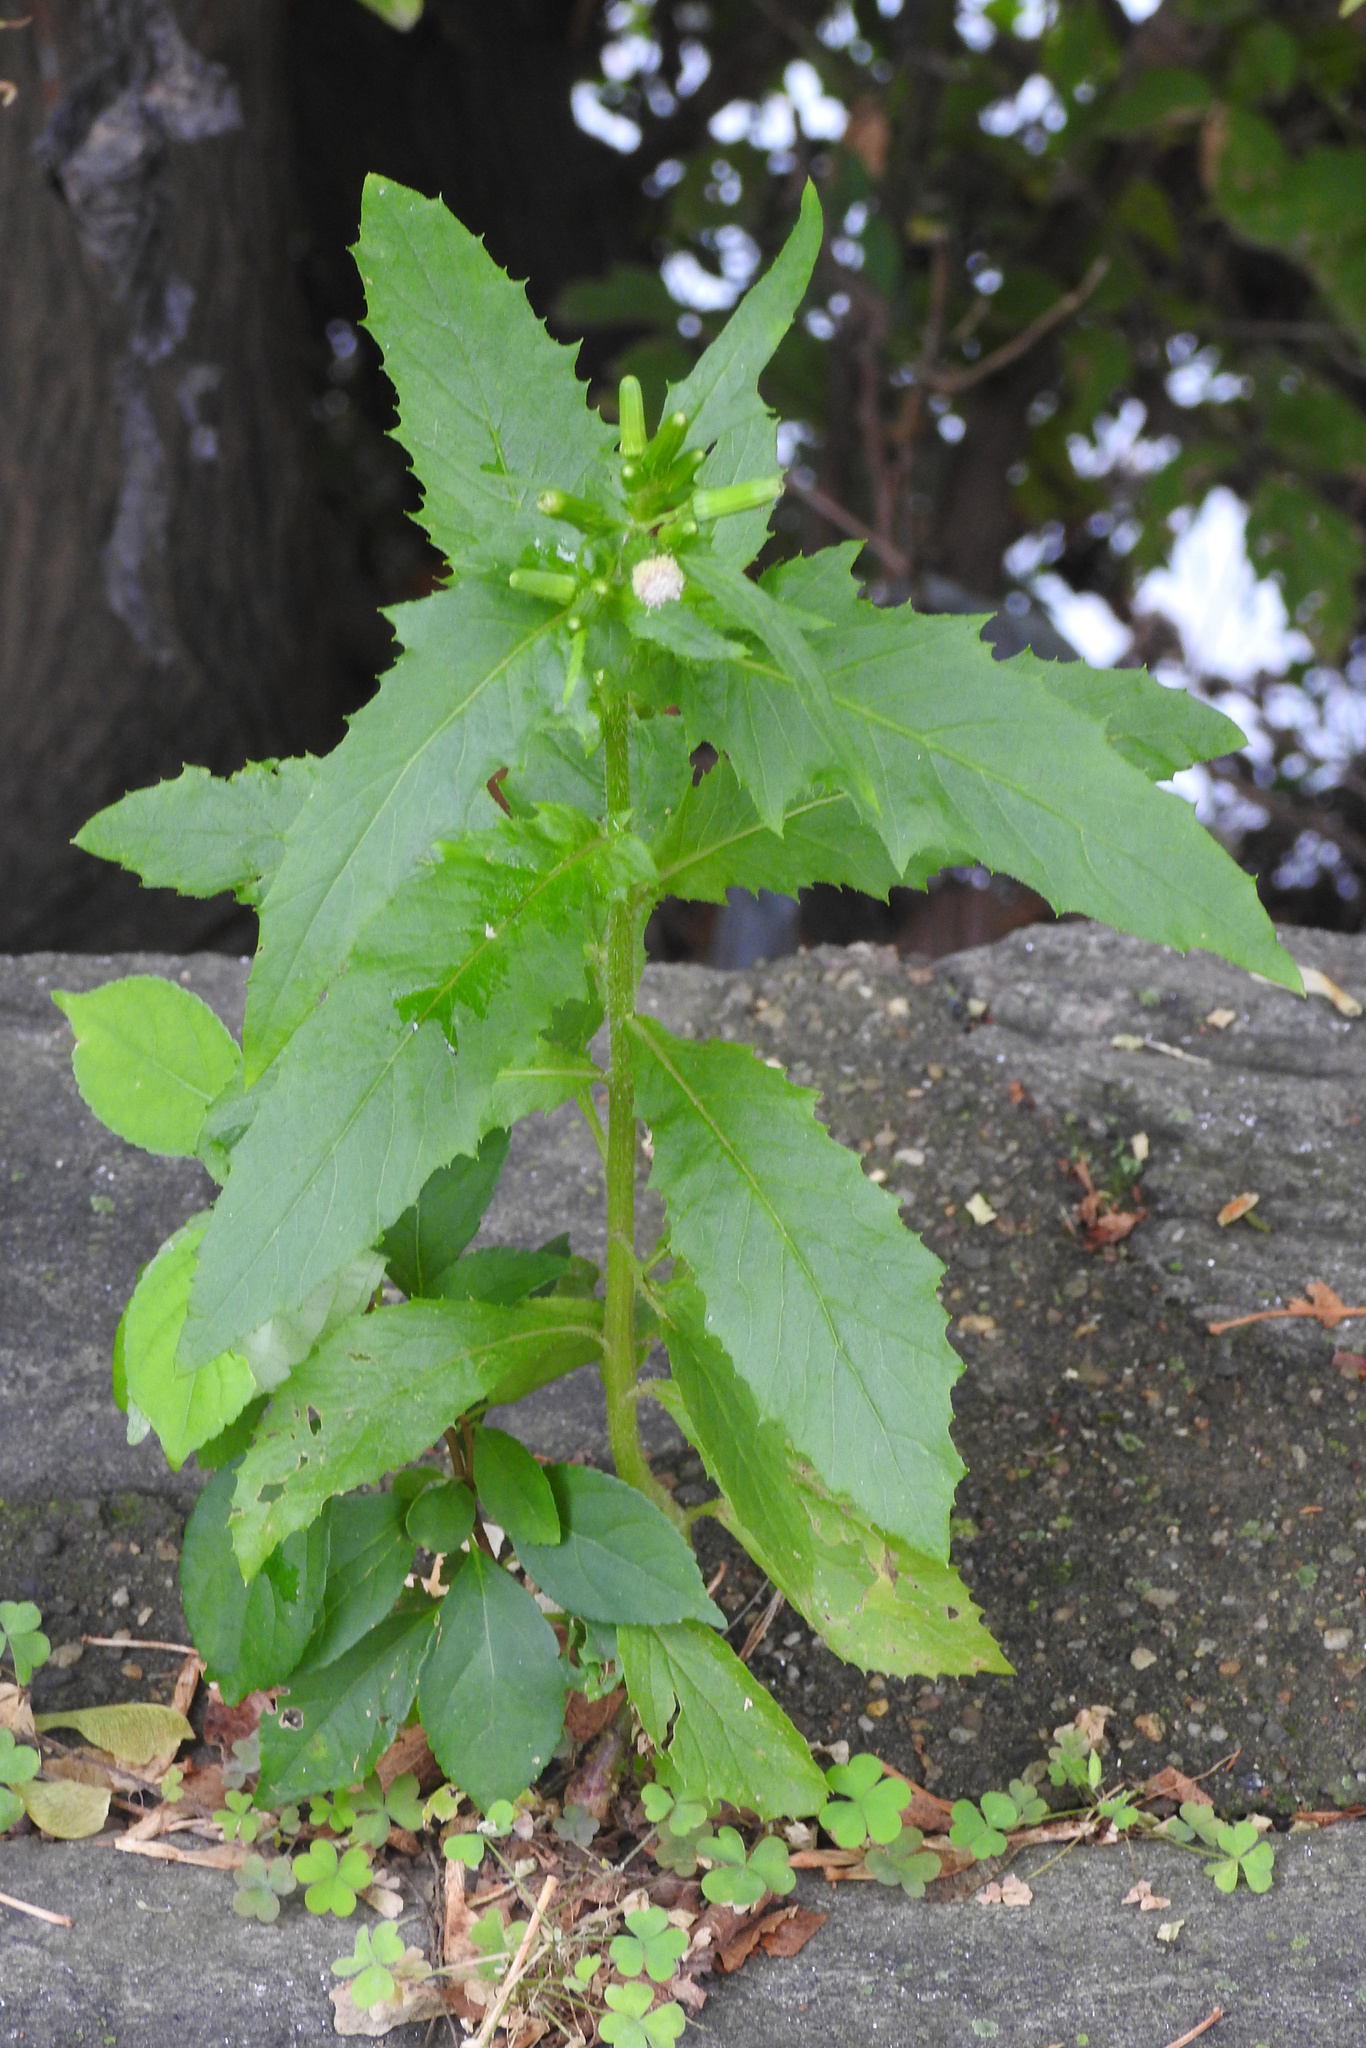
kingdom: Plantae
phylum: Tracheophyta
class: Magnoliopsida
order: Asterales
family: Asteraceae
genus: Erechtites
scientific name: Erechtites hieraciifolius
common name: American burnweed
